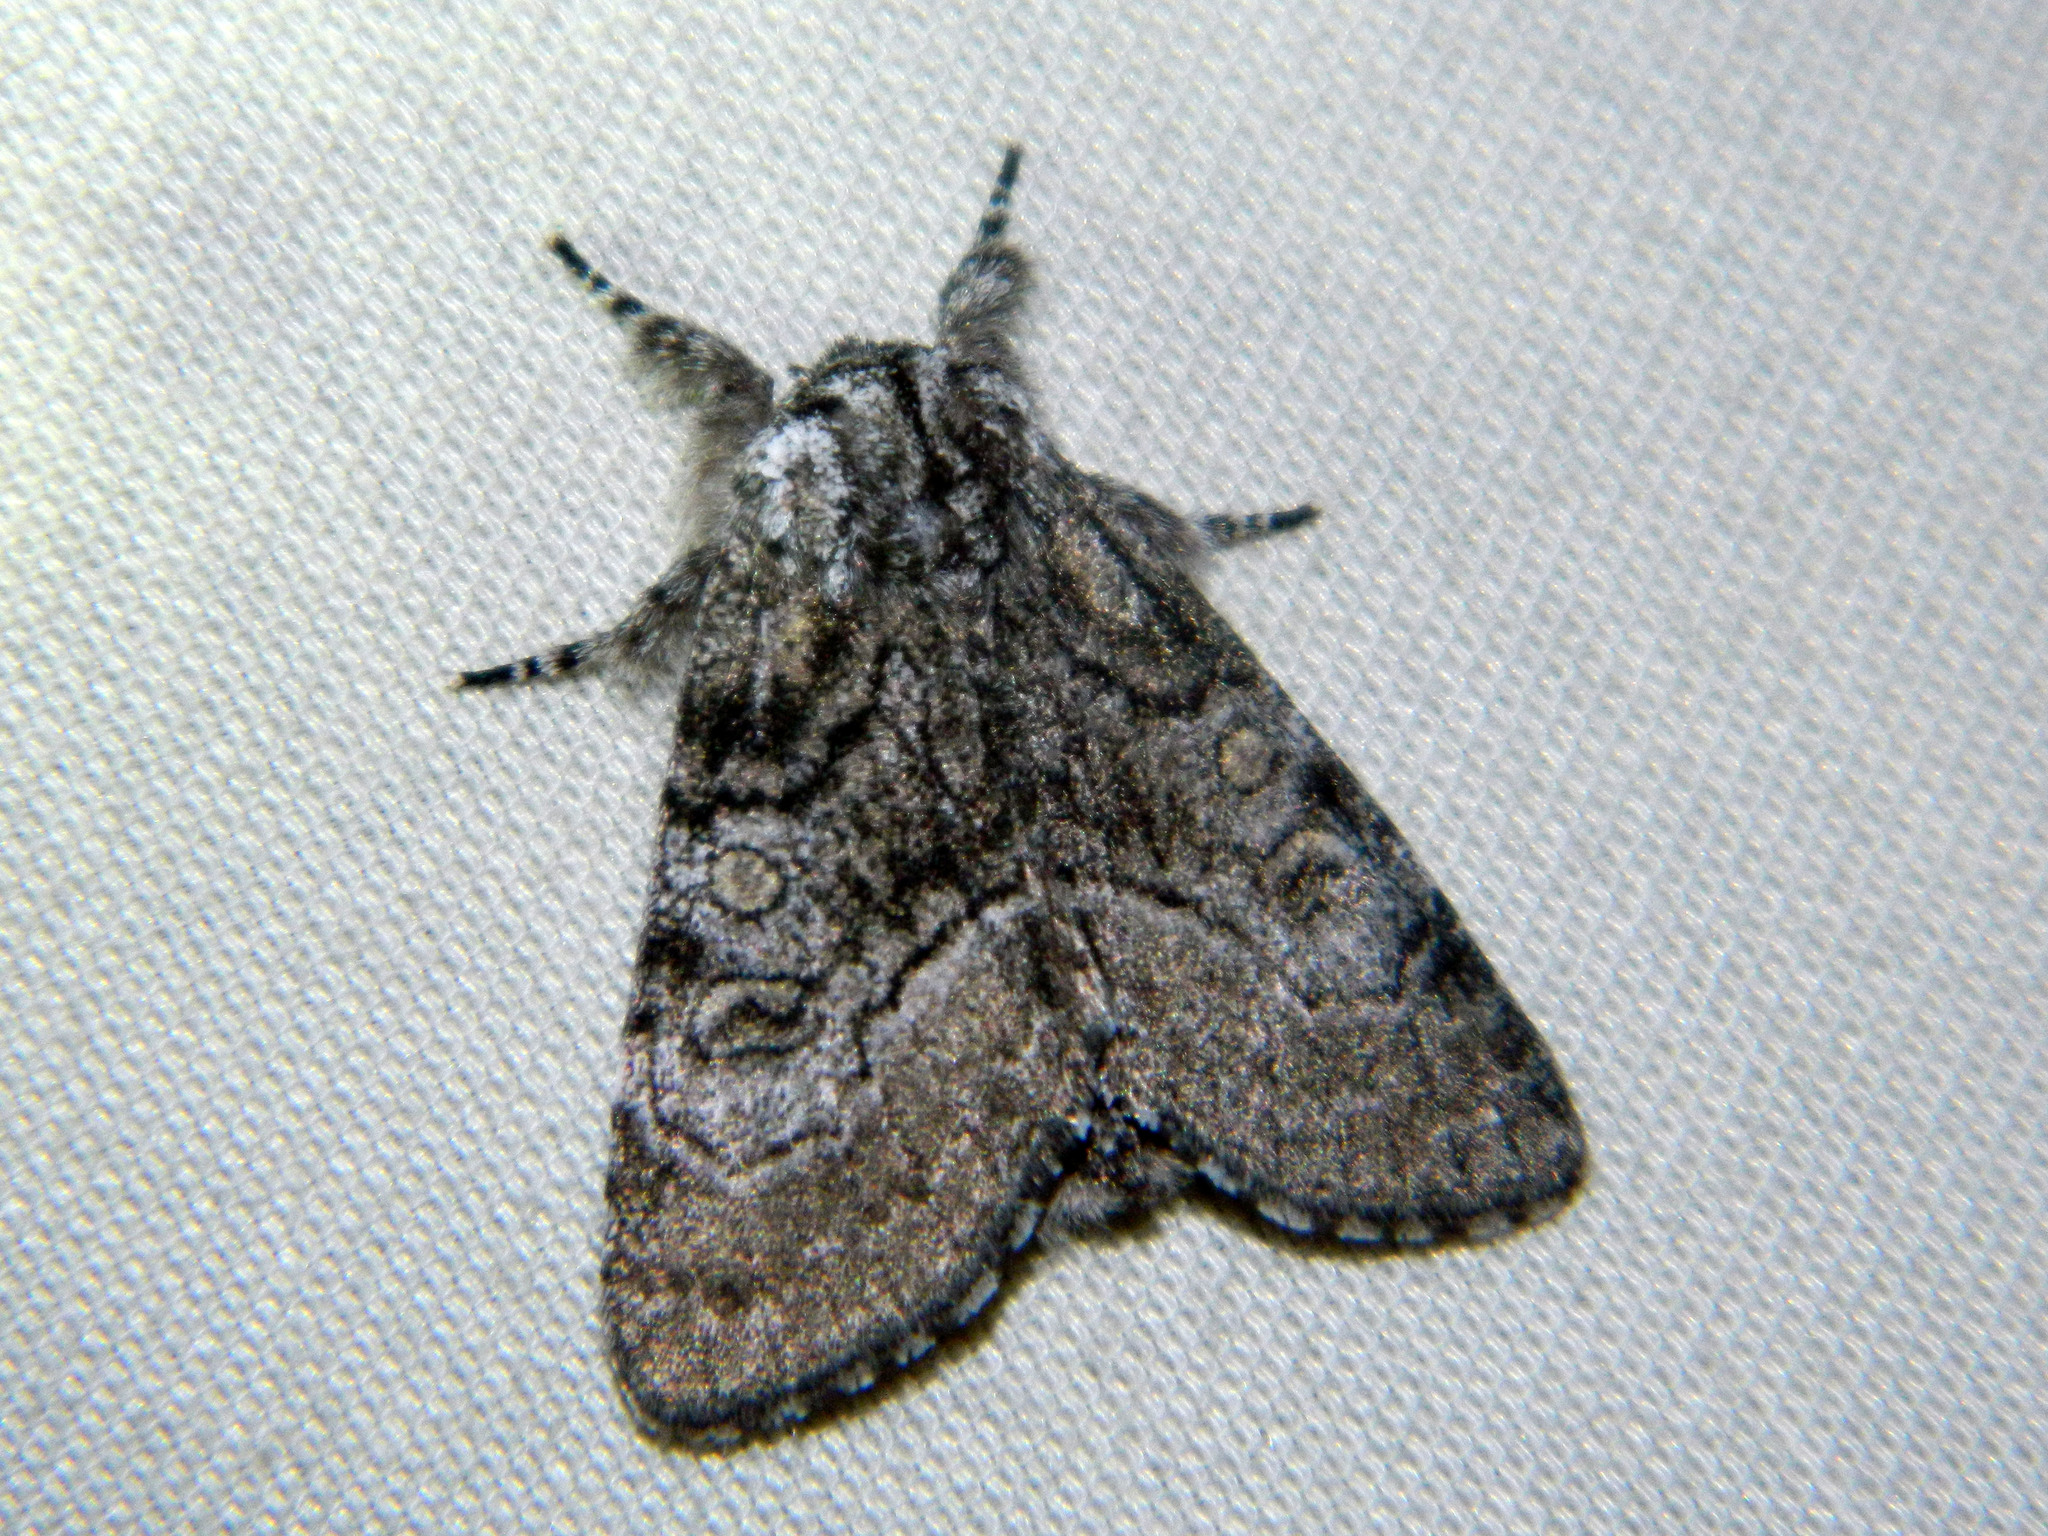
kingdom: Animalia
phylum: Arthropoda
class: Insecta
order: Lepidoptera
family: Noctuidae
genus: Raphia
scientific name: Raphia frater
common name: Brother
